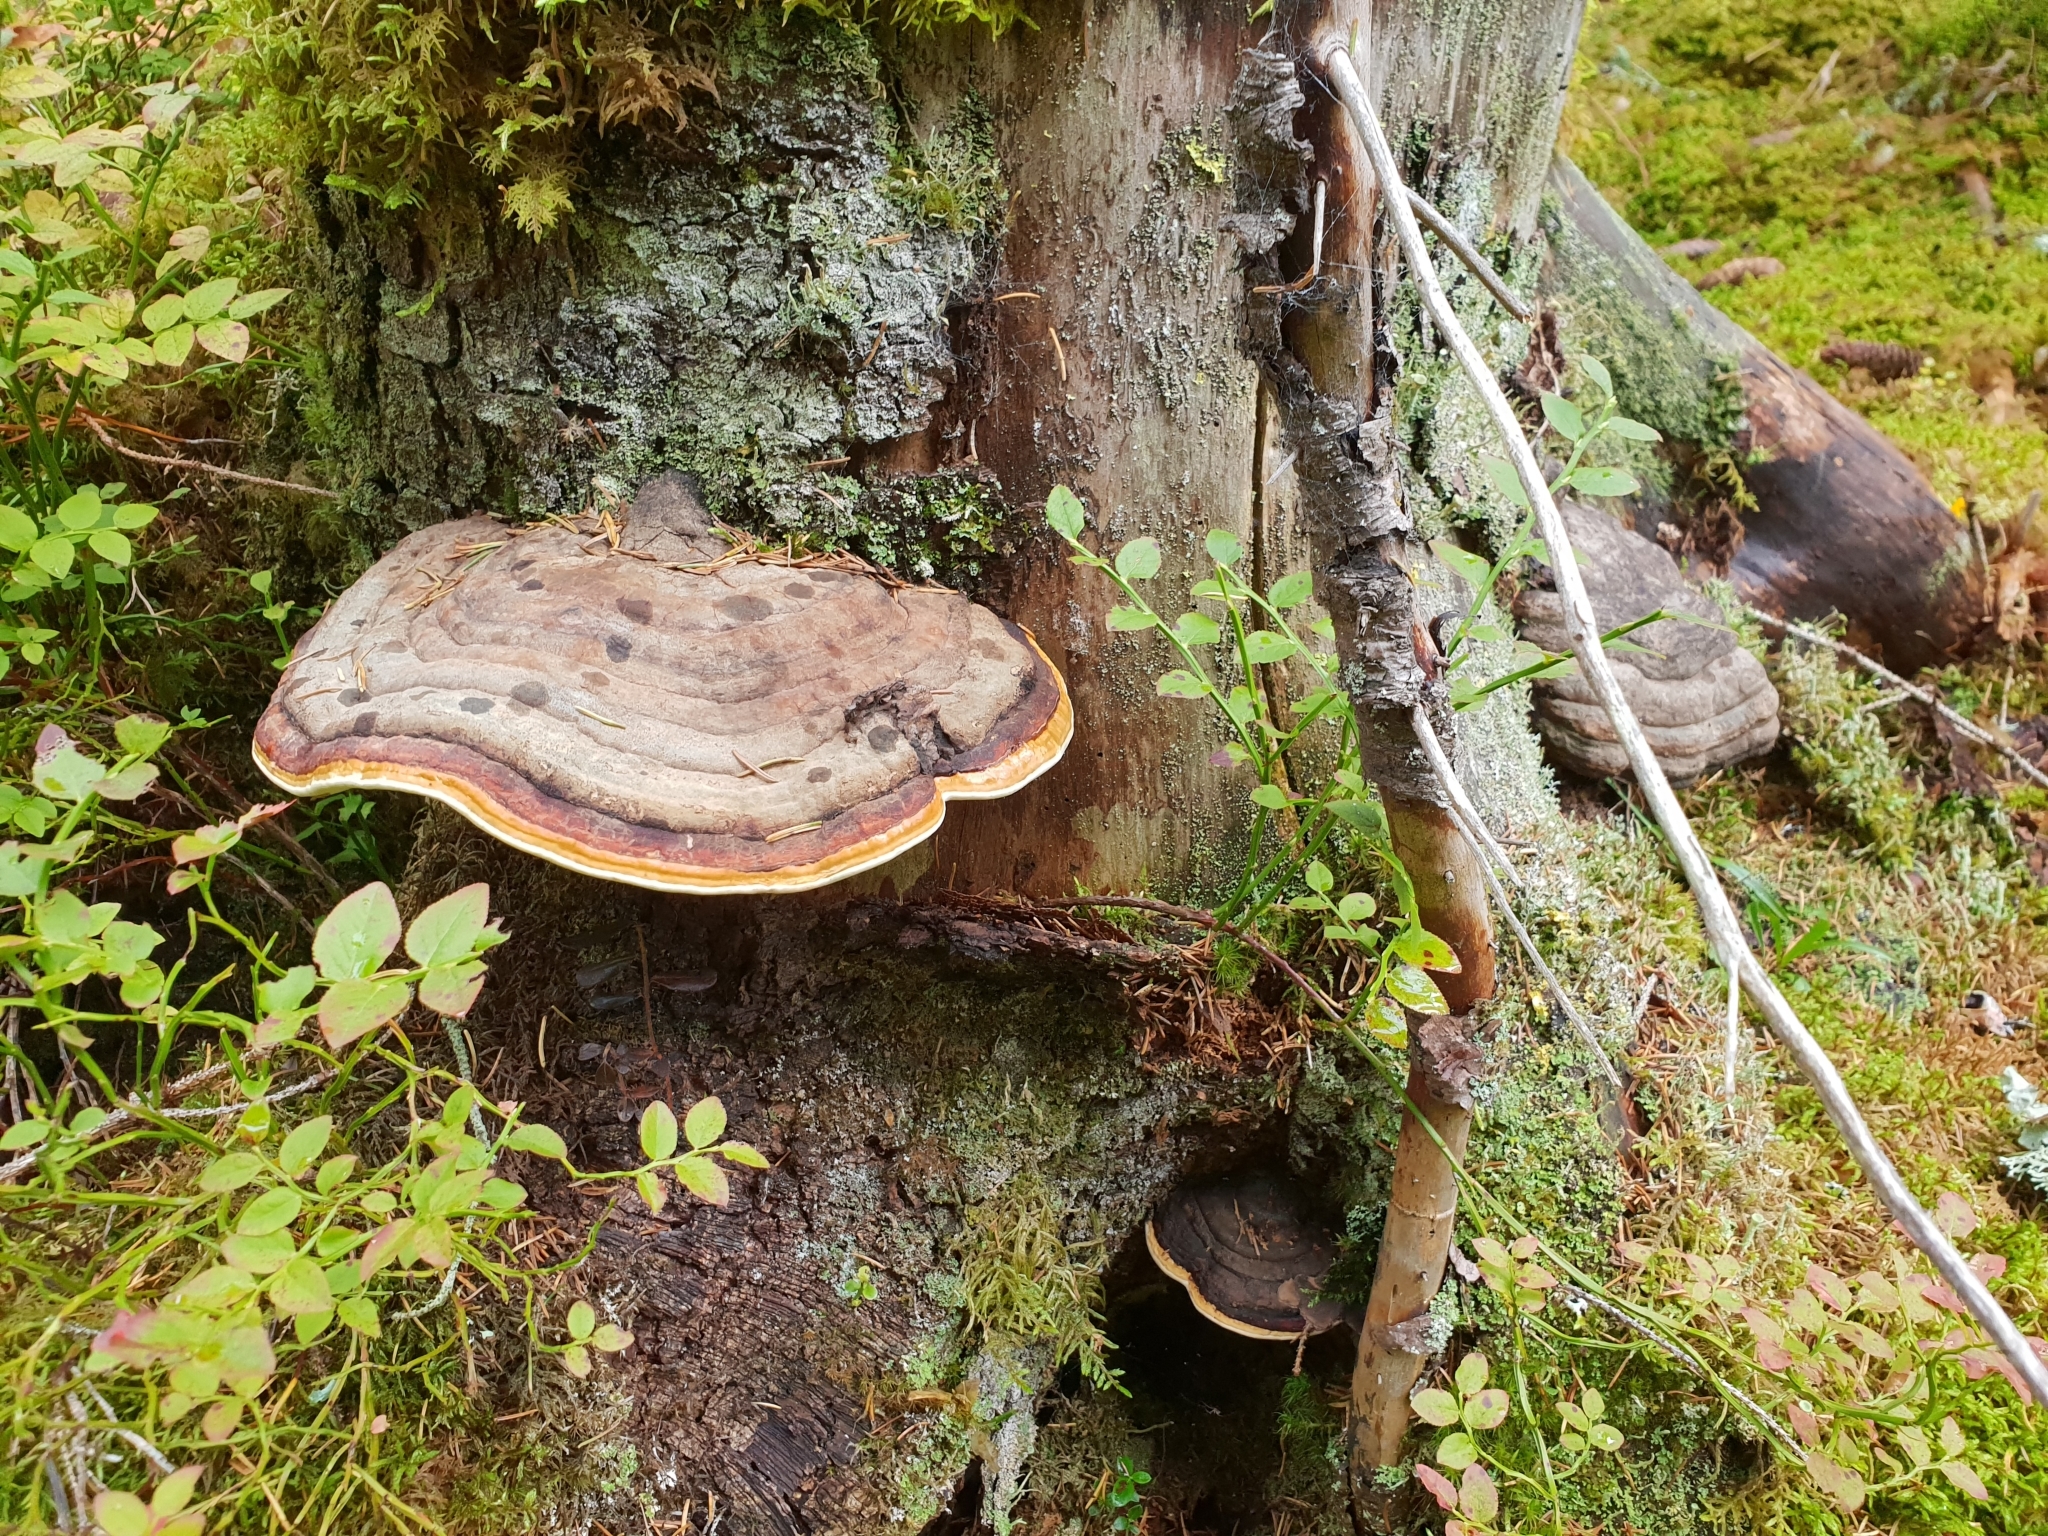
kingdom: Fungi
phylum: Basidiomycota
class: Agaricomycetes
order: Polyporales
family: Fomitopsidaceae
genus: Fomitopsis
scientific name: Fomitopsis pinicola
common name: Red-belted bracket
